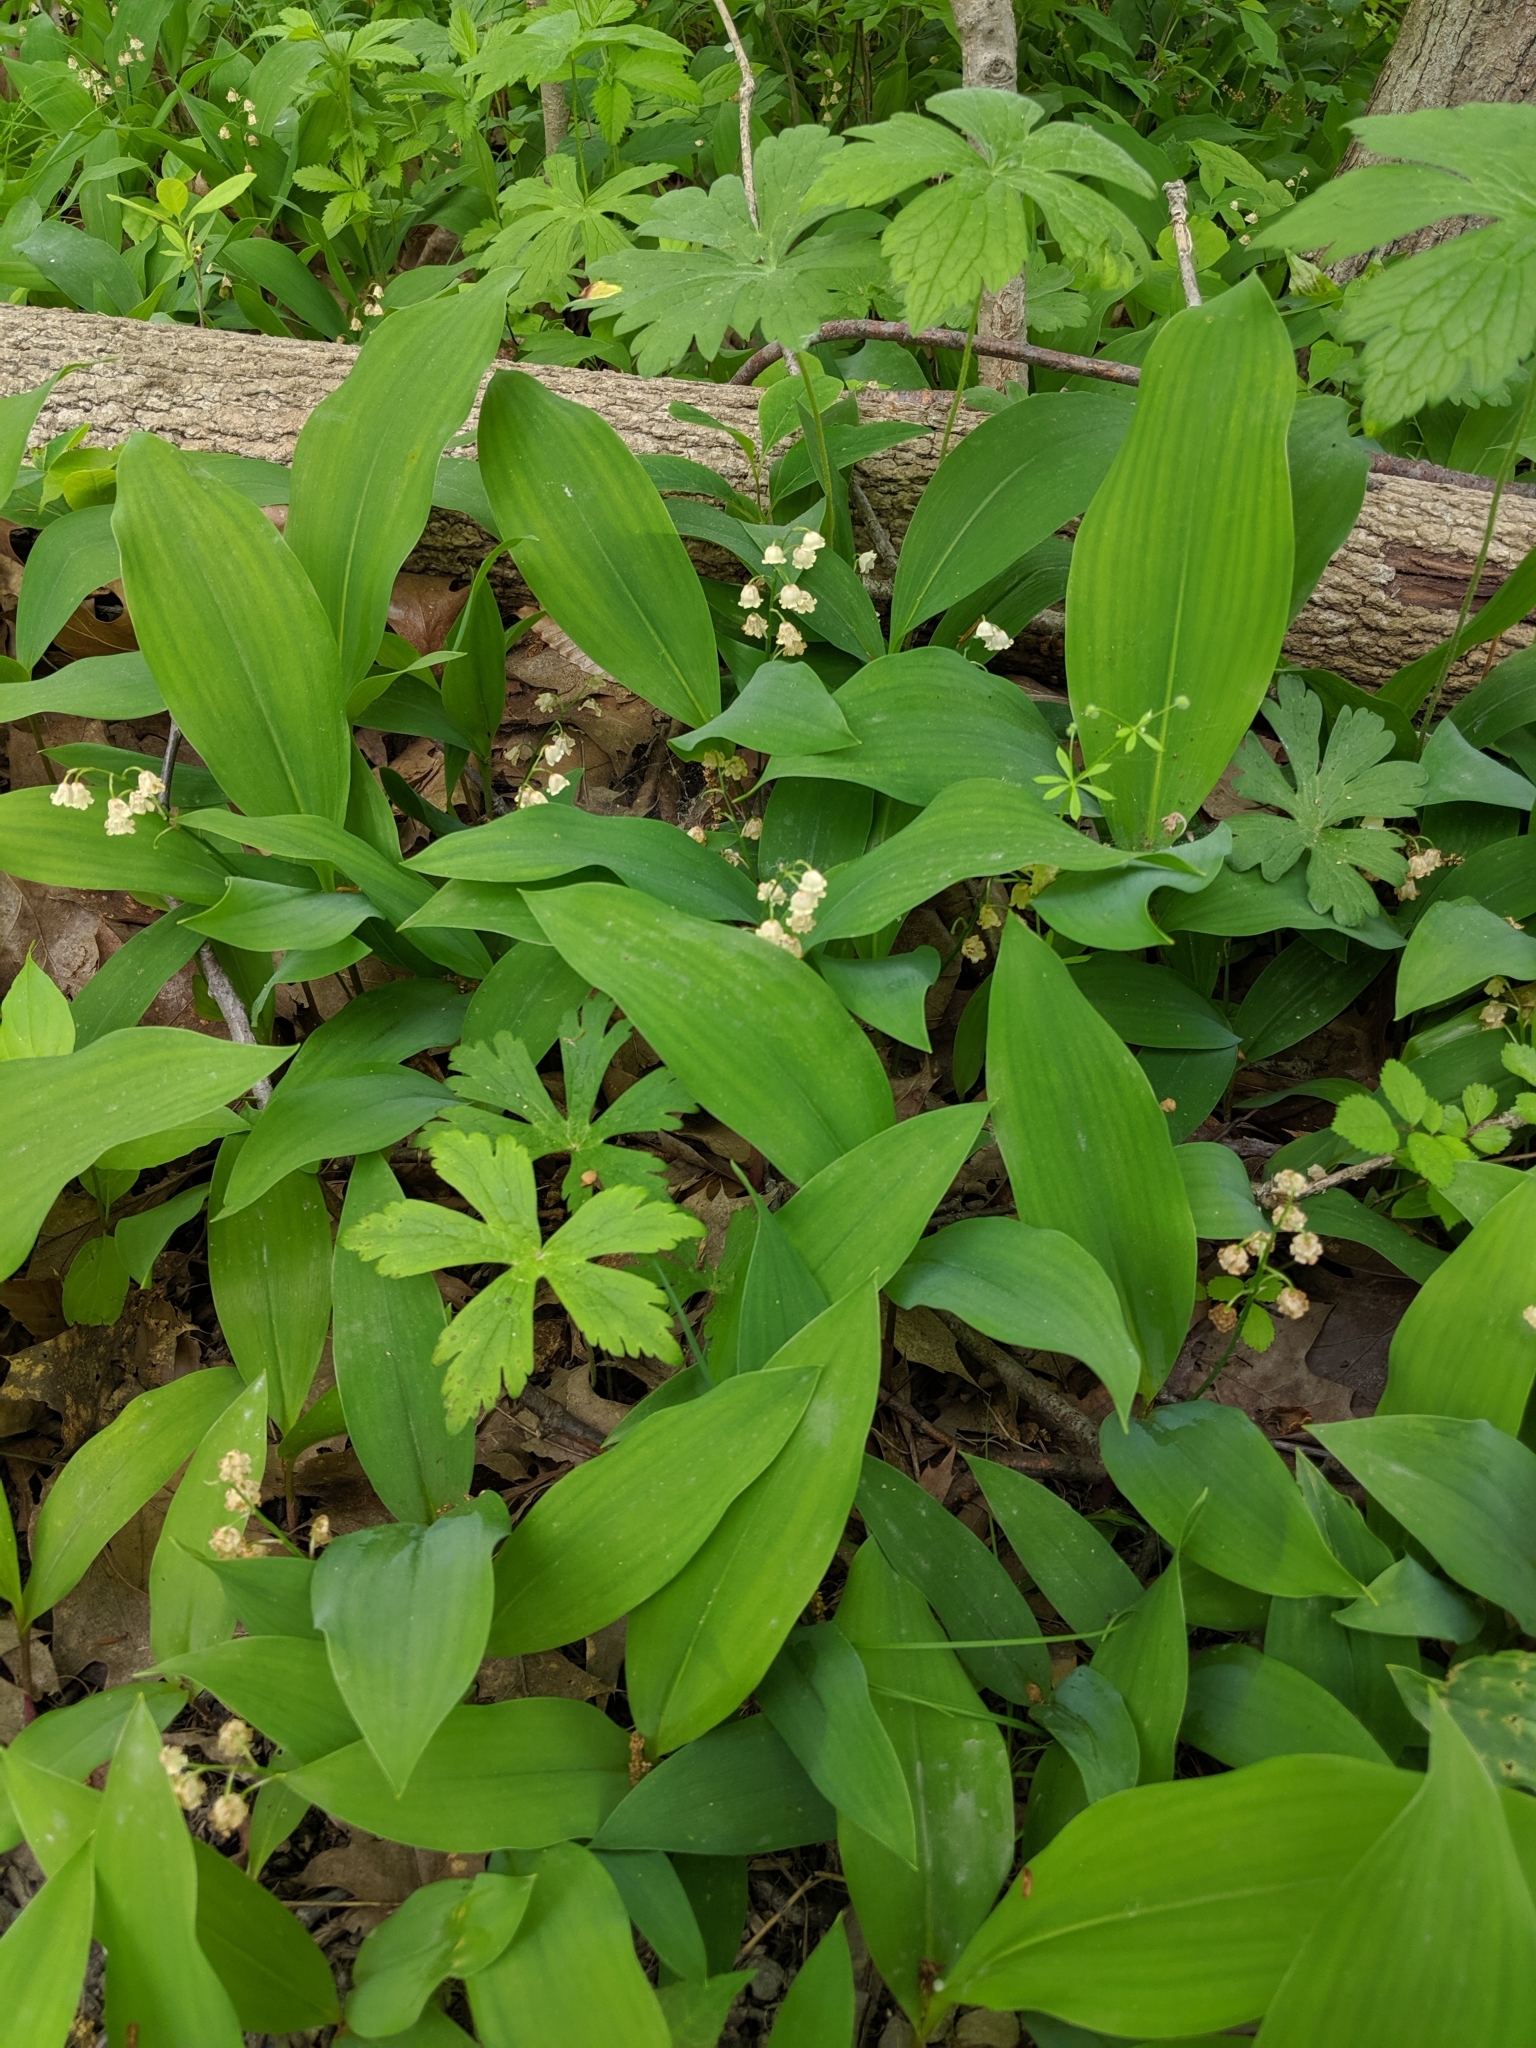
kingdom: Plantae
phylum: Tracheophyta
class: Liliopsida
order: Asparagales
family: Asparagaceae
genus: Convallaria
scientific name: Convallaria majalis
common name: Lily-of-the-valley
